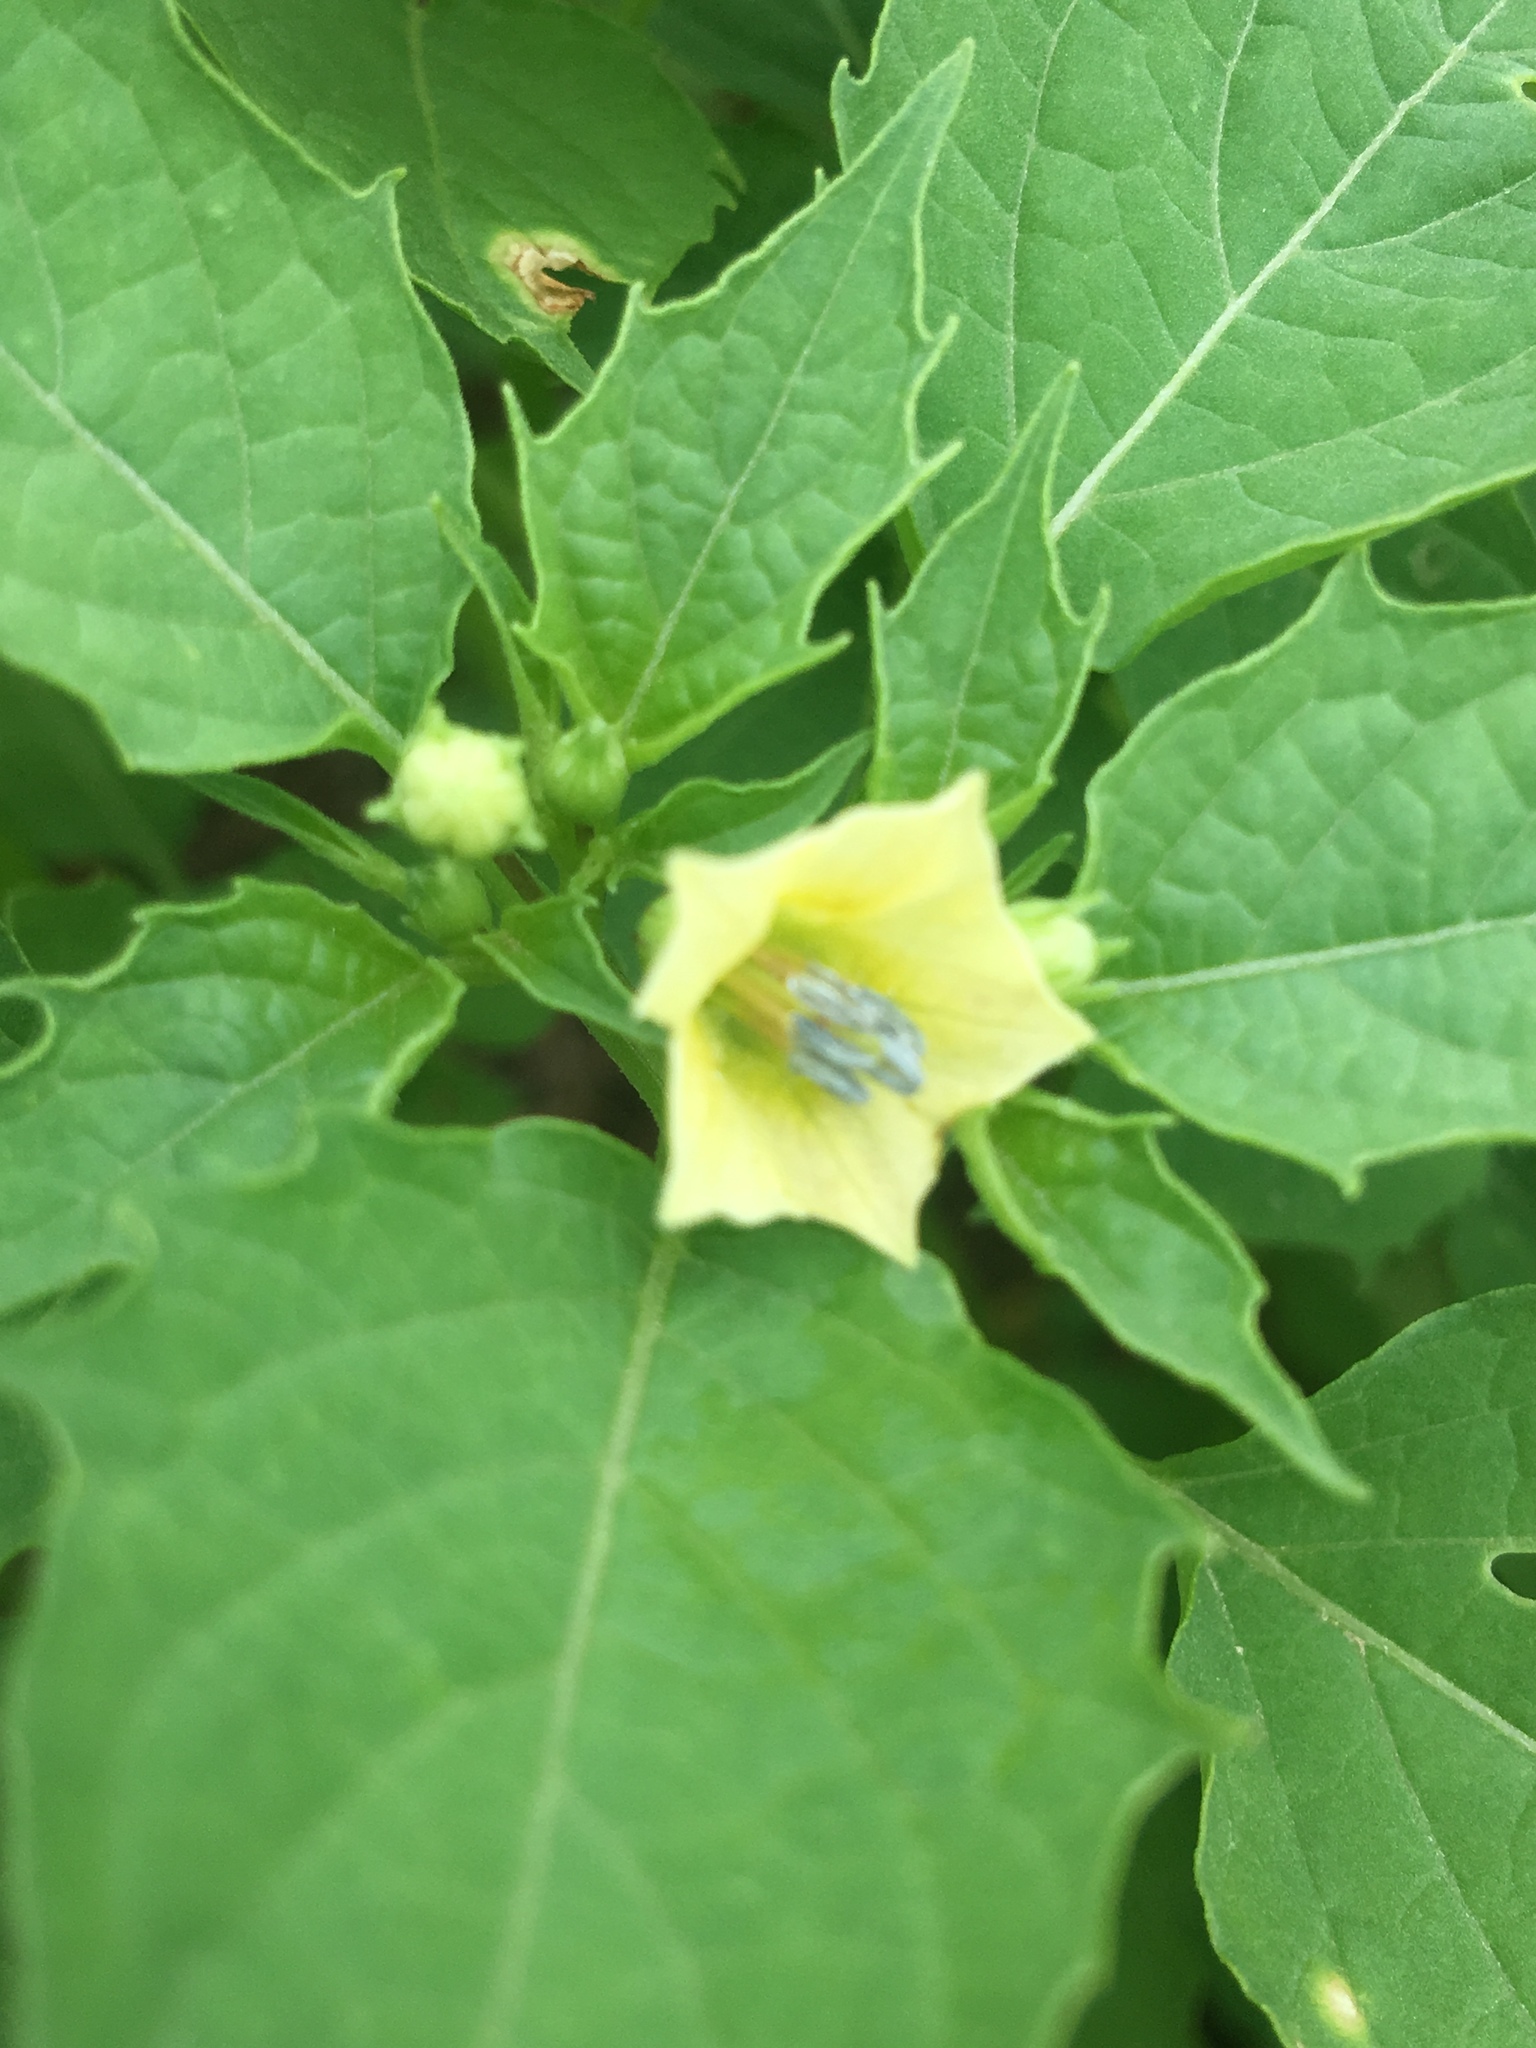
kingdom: Plantae
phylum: Tracheophyta
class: Magnoliopsida
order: Solanales
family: Solanaceae
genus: Physalis
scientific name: Physalis angulata
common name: Angular winter-cherry
